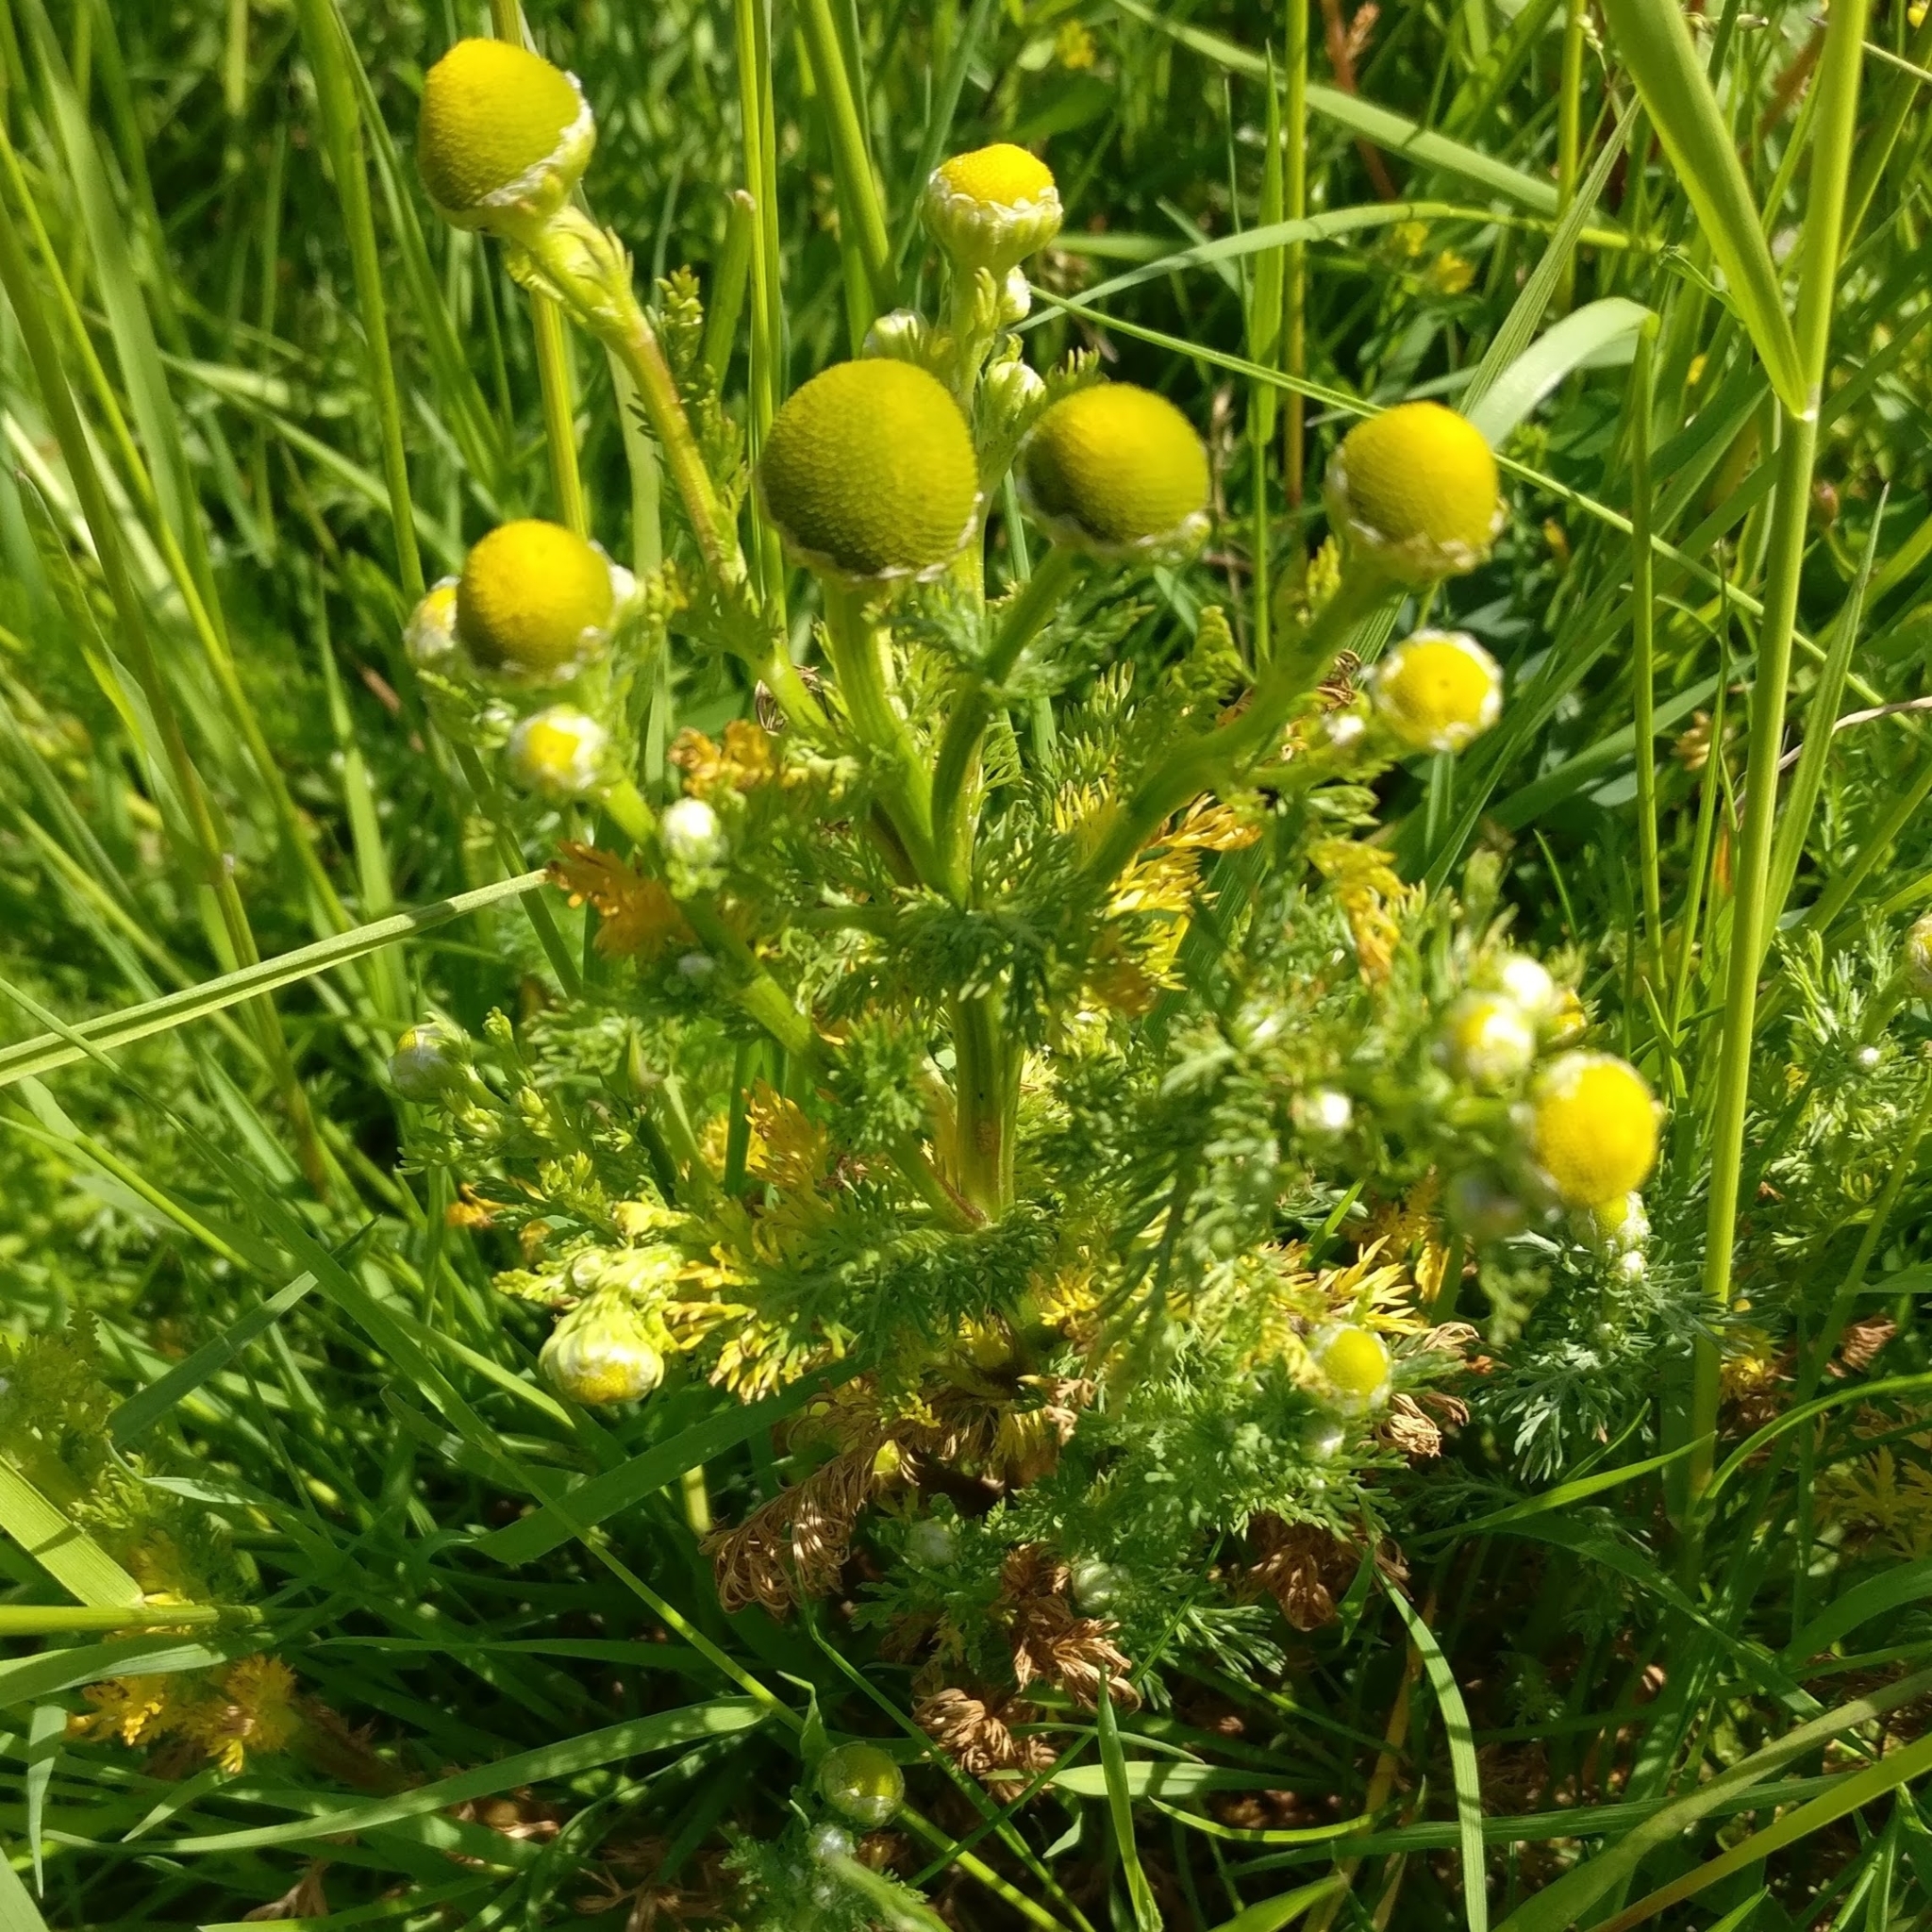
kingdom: Plantae
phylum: Tracheophyta
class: Magnoliopsida
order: Asterales
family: Asteraceae
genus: Matricaria
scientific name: Matricaria discoidea
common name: Disc mayweed
